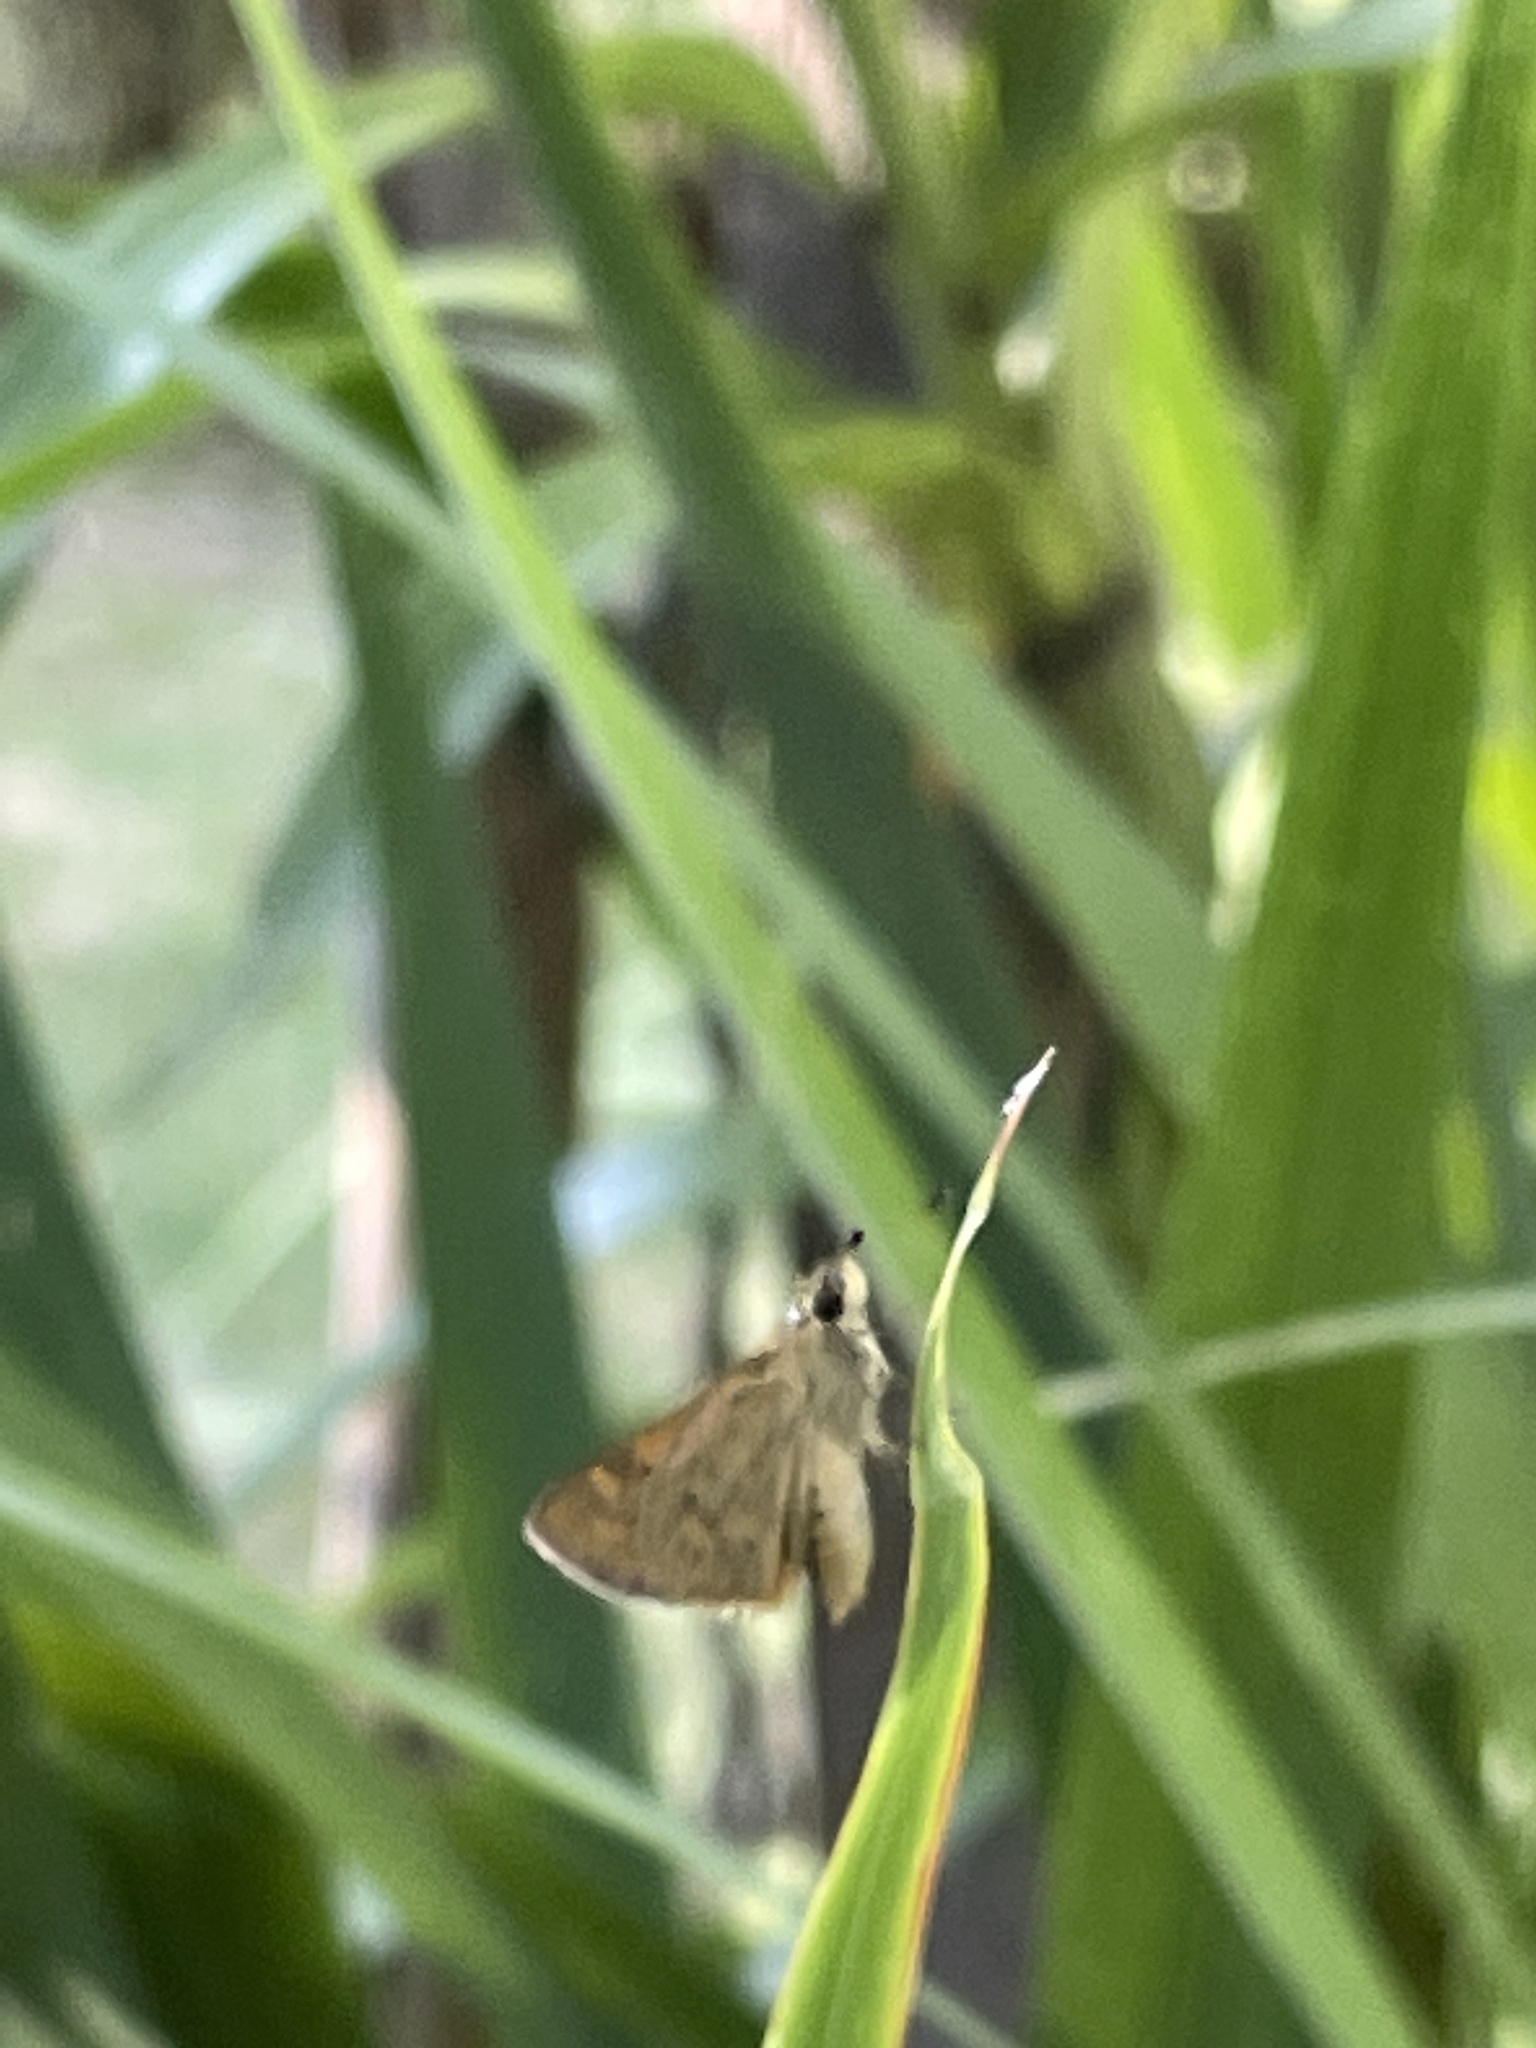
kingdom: Animalia
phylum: Arthropoda
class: Insecta
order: Lepidoptera
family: Hesperiidae
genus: Ocybadistes
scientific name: Ocybadistes walkeri
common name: Yellow-banded dart
